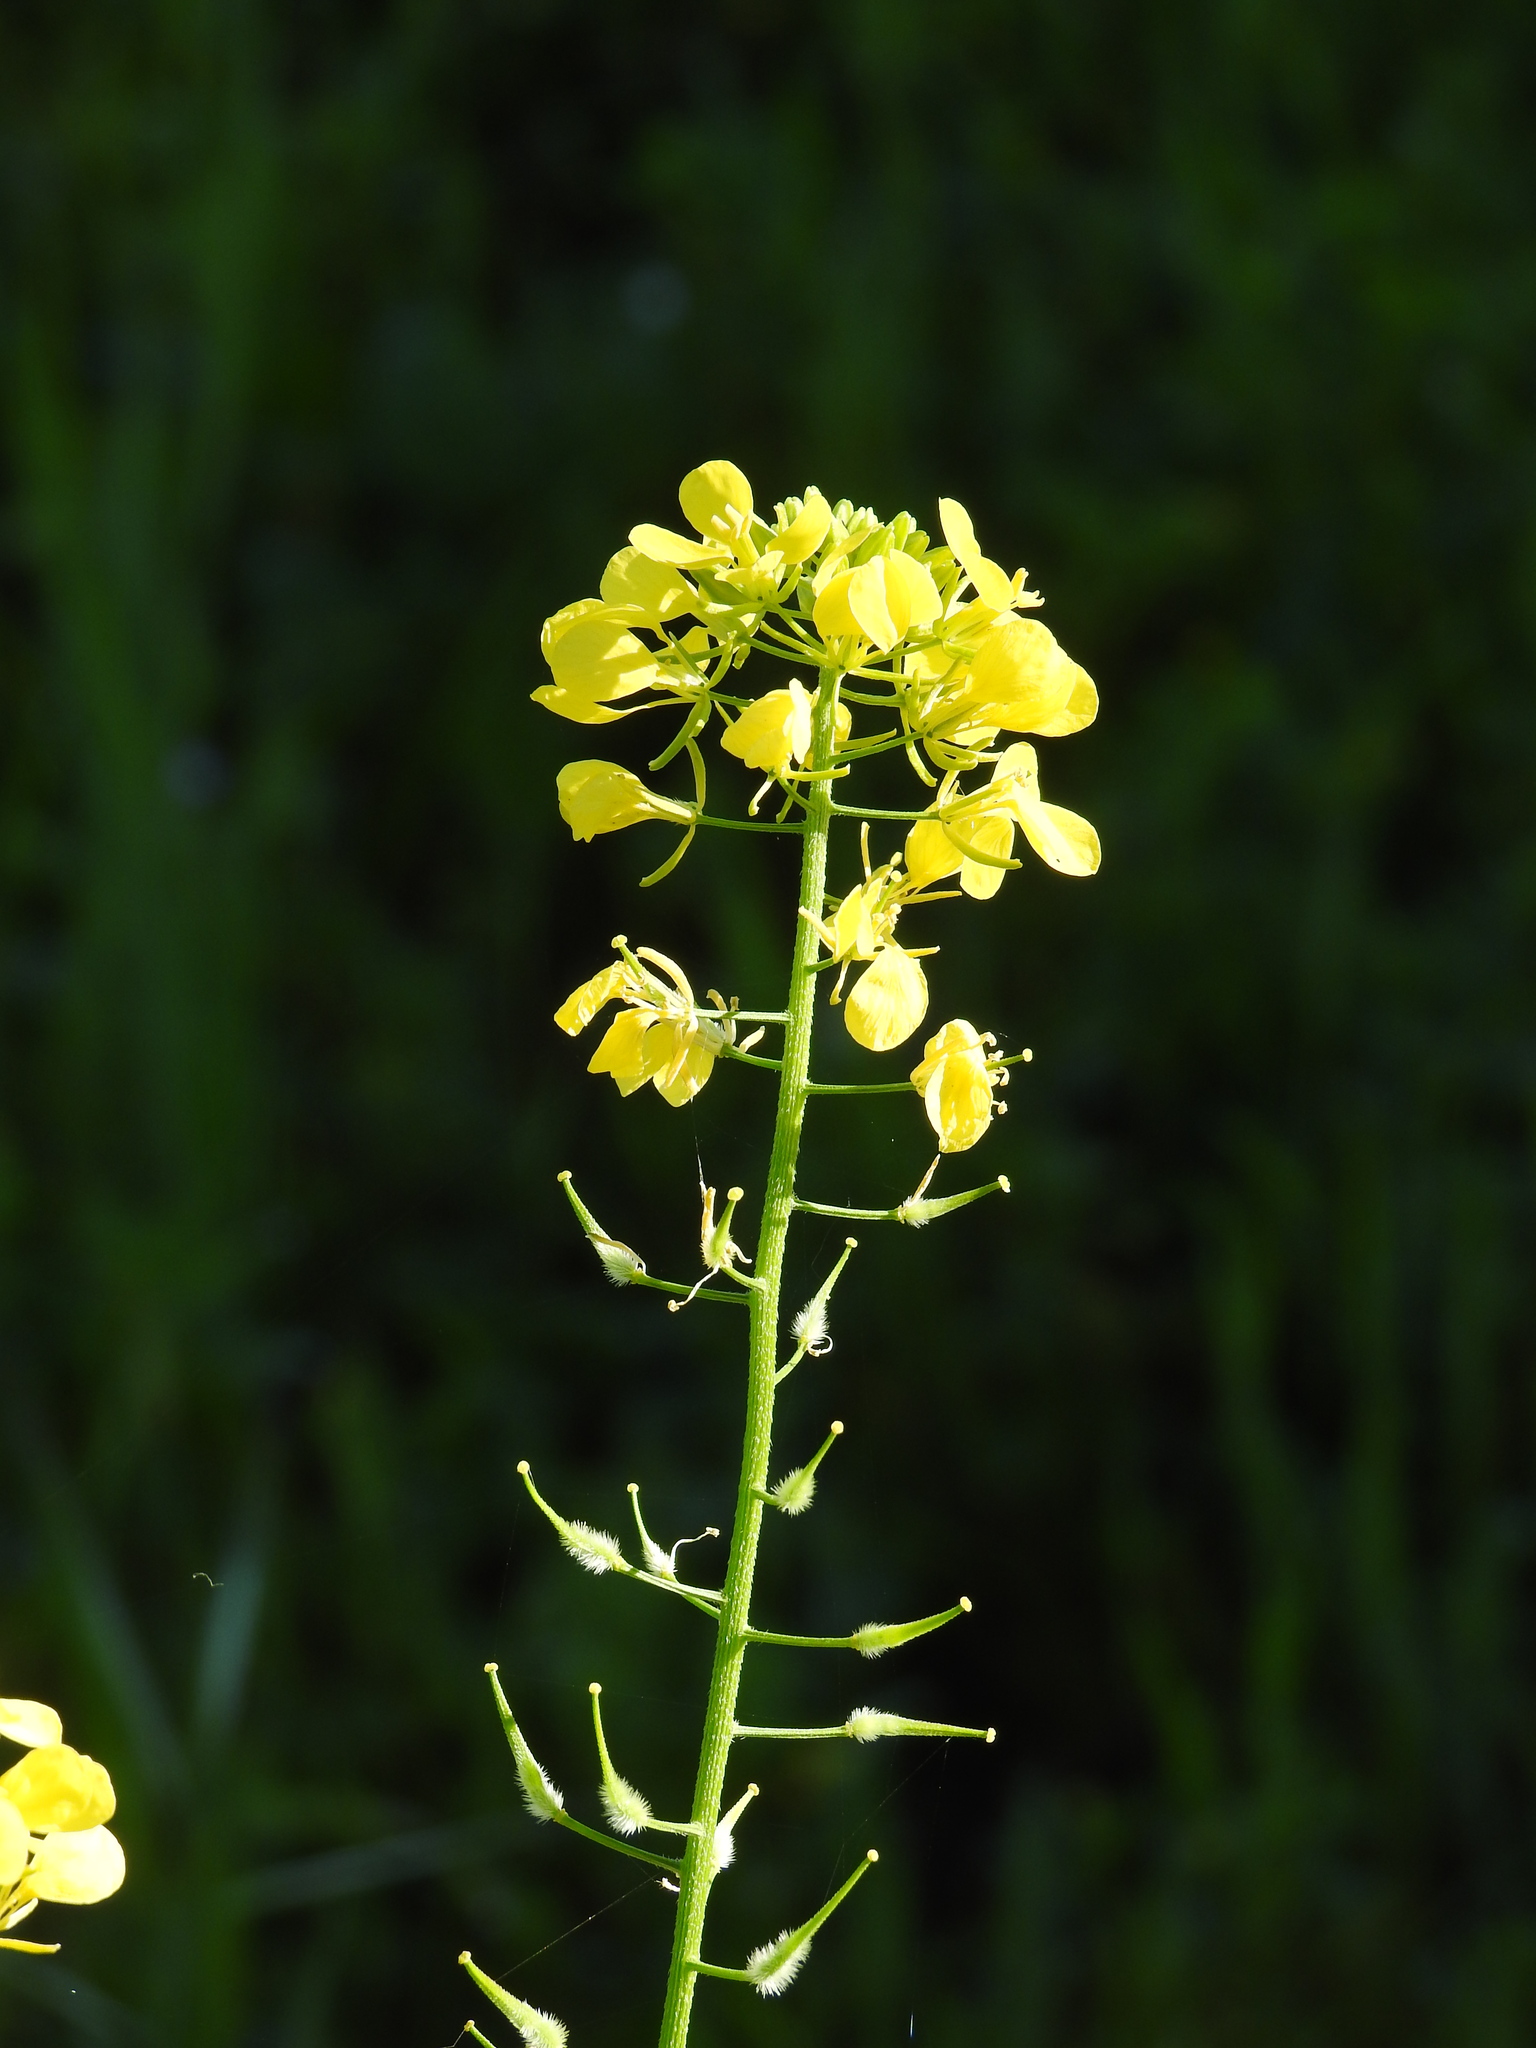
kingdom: Plantae
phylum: Tracheophyta
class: Magnoliopsida
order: Brassicales
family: Brassicaceae
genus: Sinapis
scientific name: Sinapis alba
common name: White mustard
